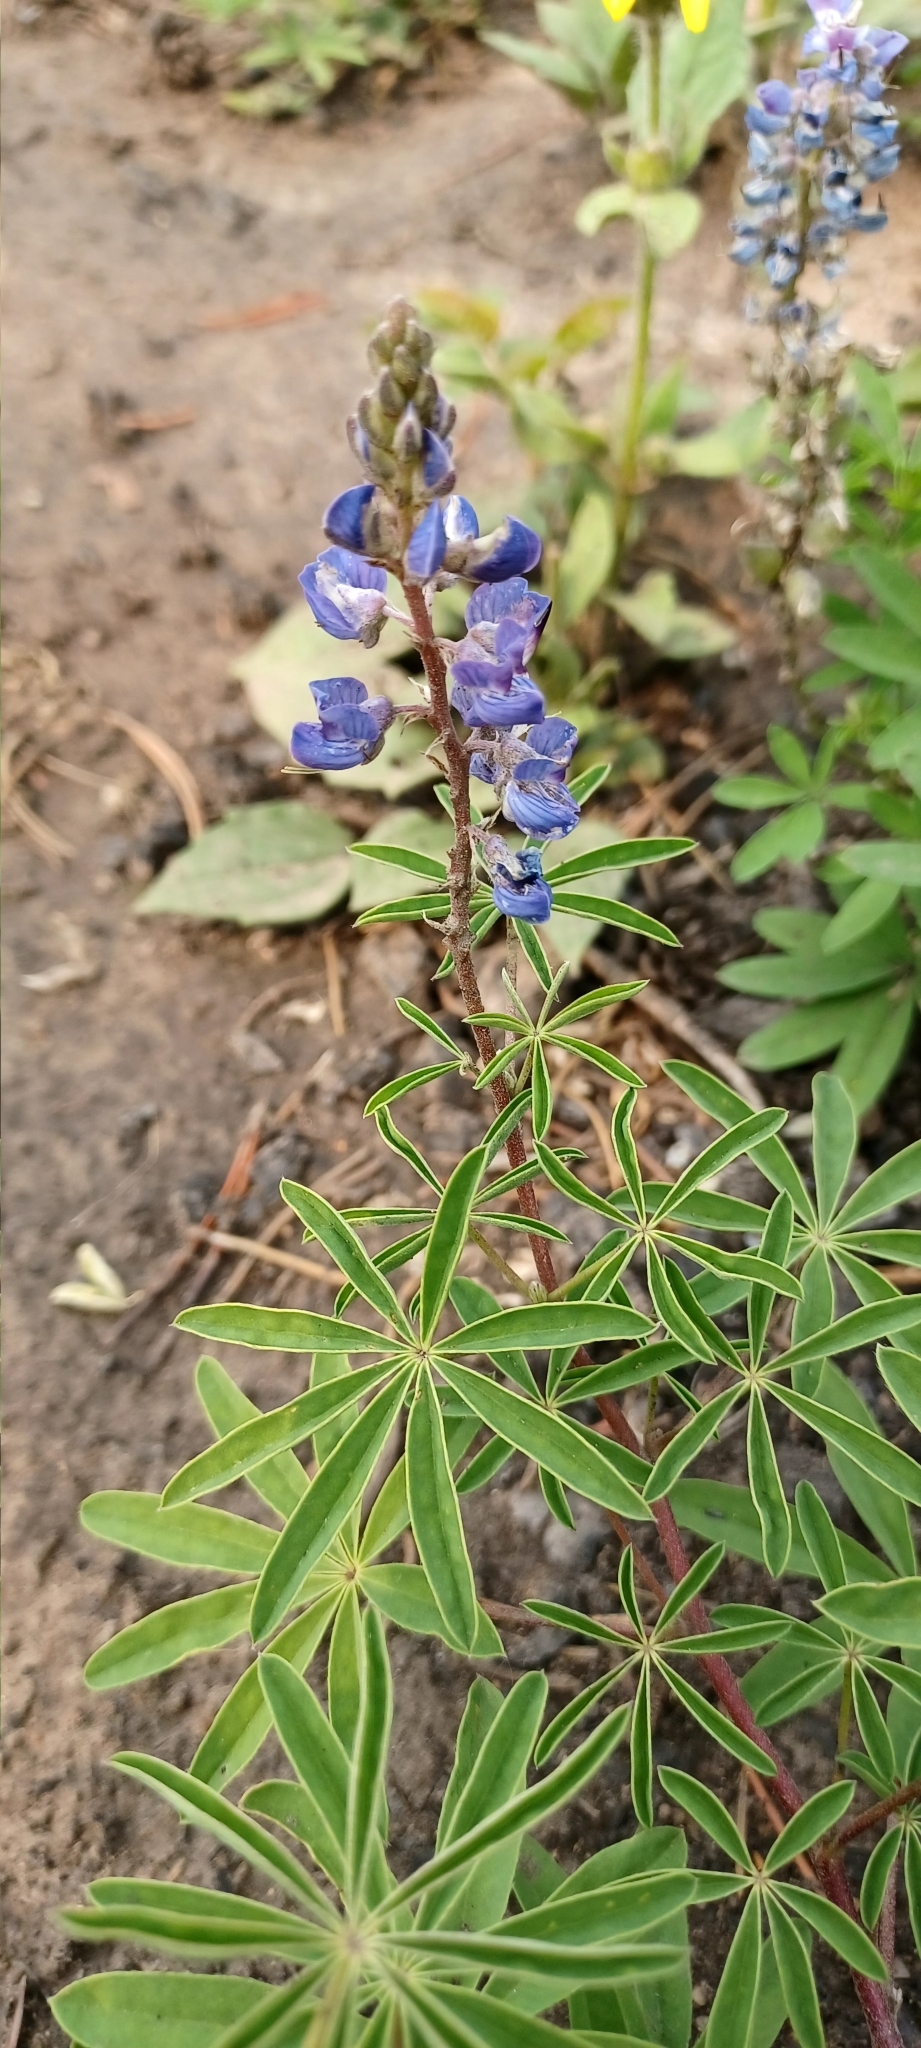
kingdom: Plantae
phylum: Tracheophyta
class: Magnoliopsida
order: Fabales
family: Fabaceae
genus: Lupinus
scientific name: Lupinus argenteus
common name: Silvery lupine
